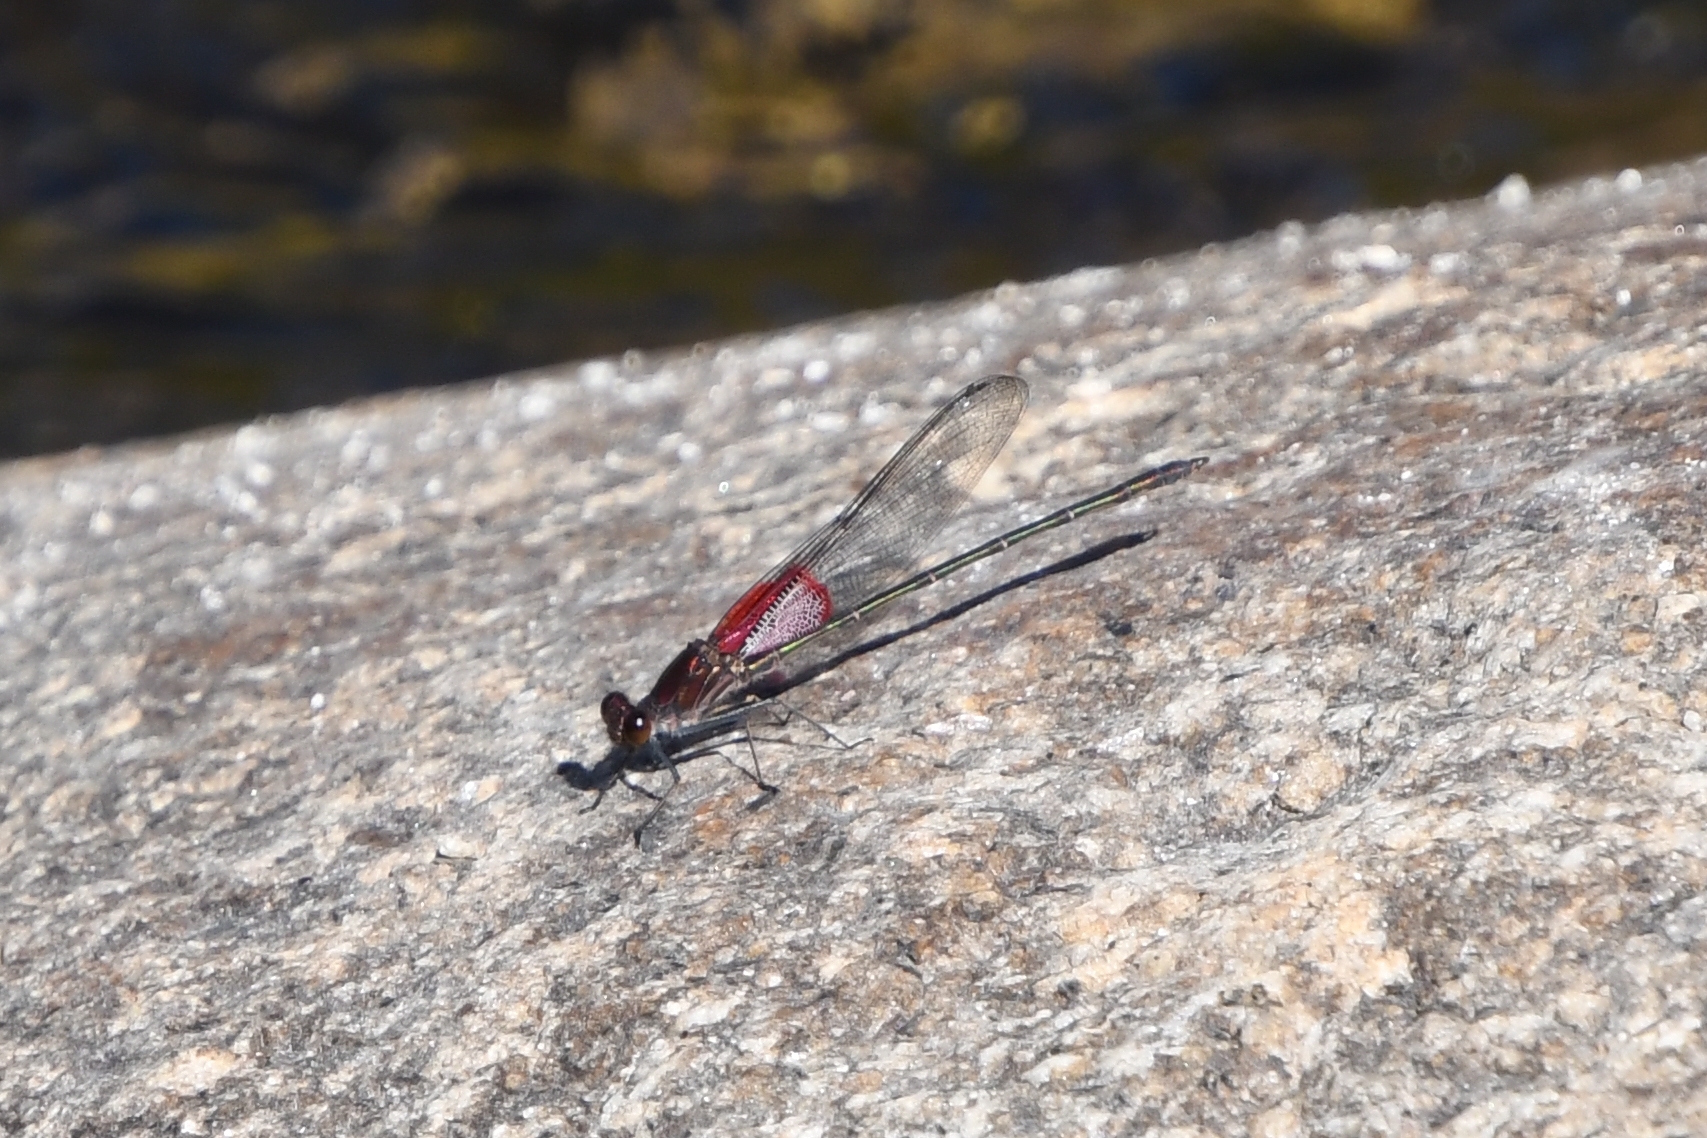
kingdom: Animalia
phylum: Arthropoda
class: Insecta
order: Odonata
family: Calopterygidae
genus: Hetaerina
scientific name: Hetaerina americana
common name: American rubyspot
